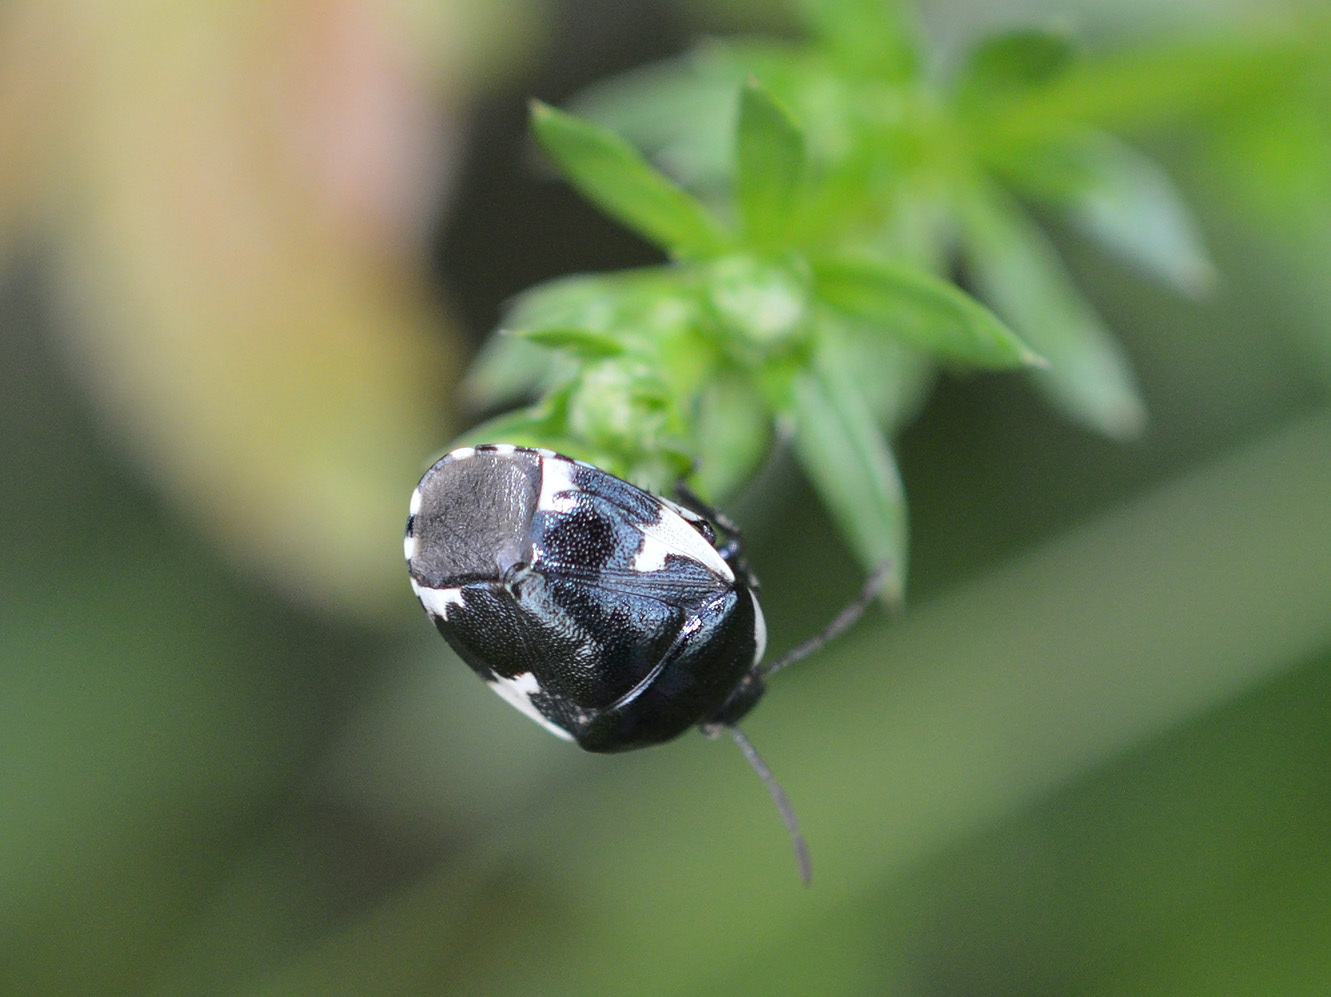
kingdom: Animalia
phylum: Arthropoda
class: Insecta
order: Hemiptera
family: Cydnidae
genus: Tritomegas
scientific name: Tritomegas sexmaculatus
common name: Rambur's pied shieldbug
